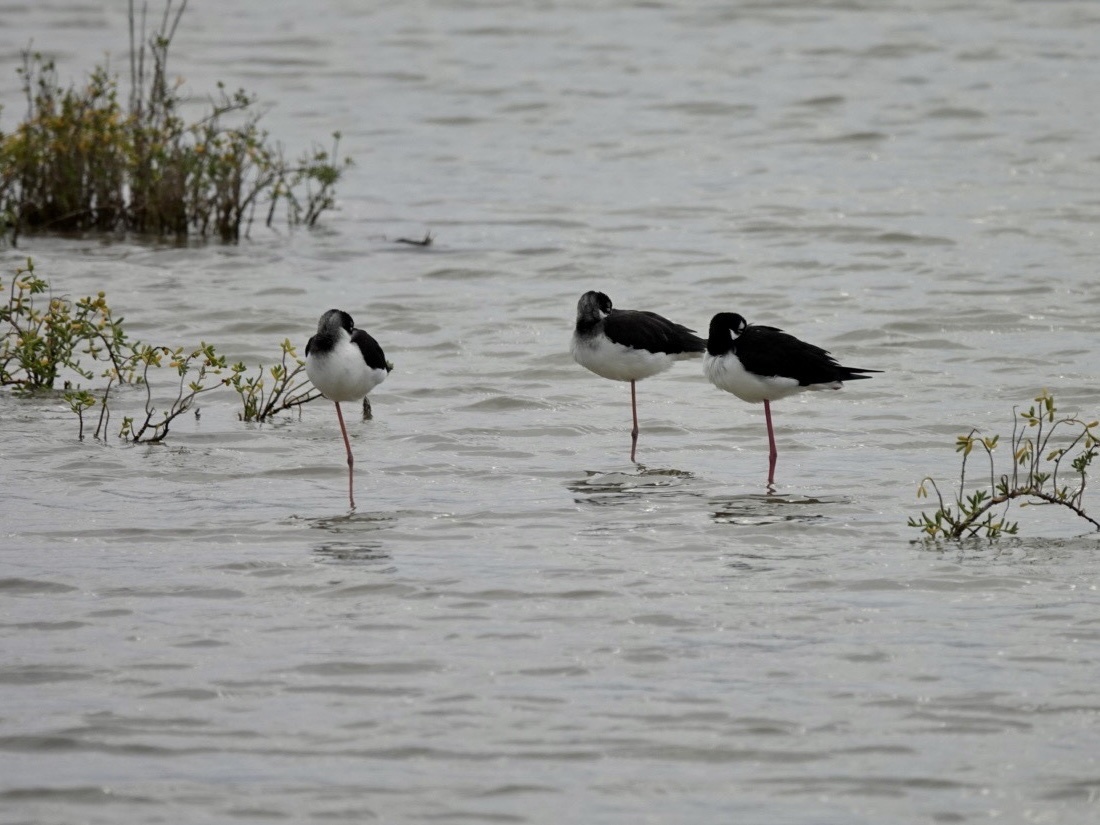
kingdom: Animalia
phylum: Chordata
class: Aves
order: Charadriiformes
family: Recurvirostridae
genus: Himantopus
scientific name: Himantopus mexicanus
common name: Black-necked stilt
